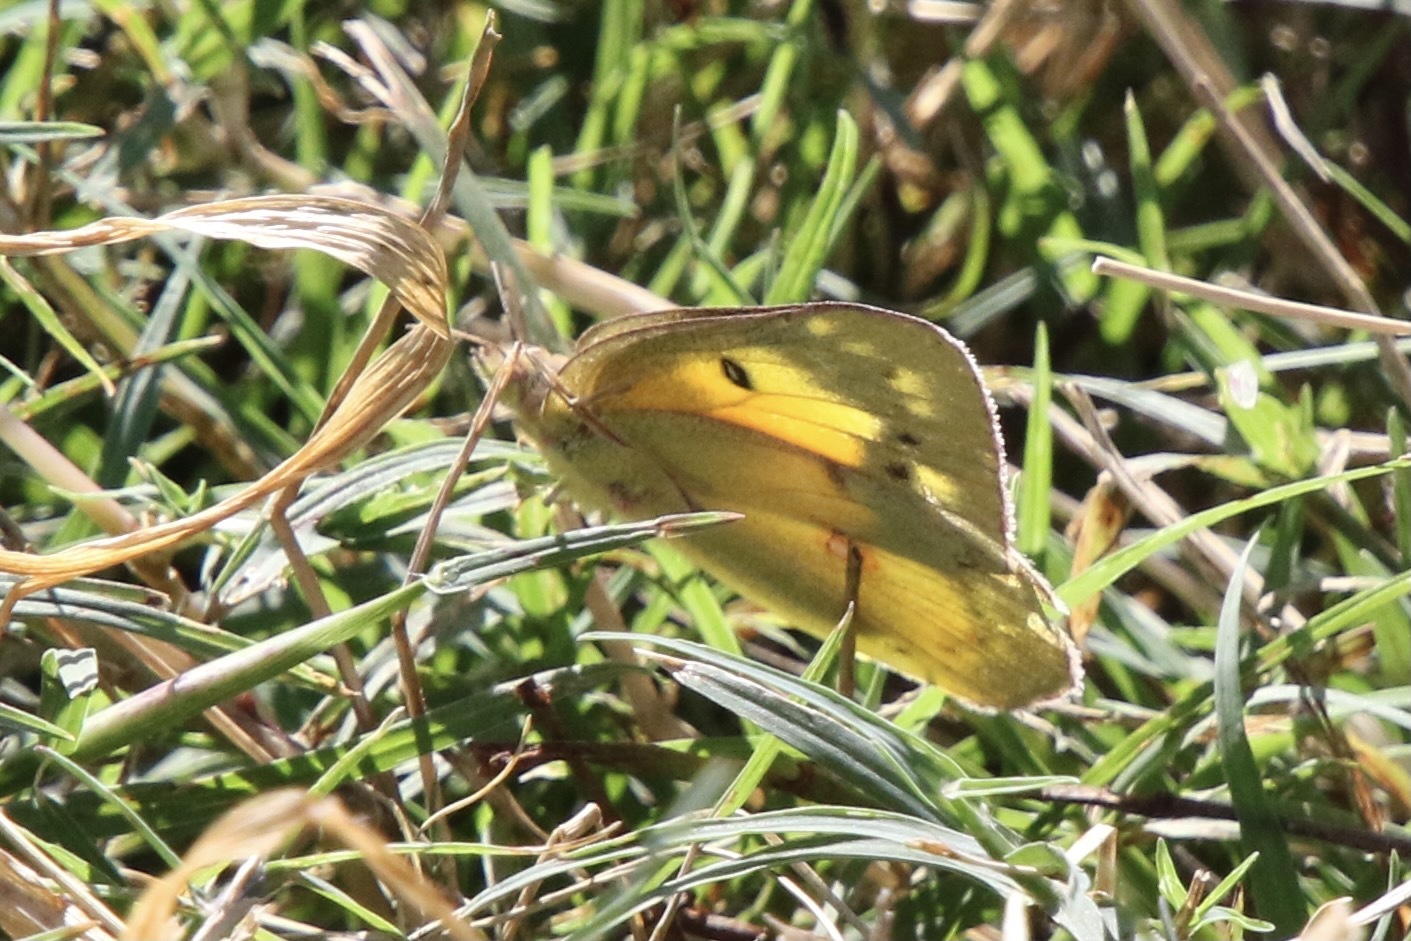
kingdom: Animalia
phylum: Arthropoda
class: Insecta
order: Lepidoptera
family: Pieridae
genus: Colias
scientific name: Colias eurytheme
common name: Alfalfa butterfly
